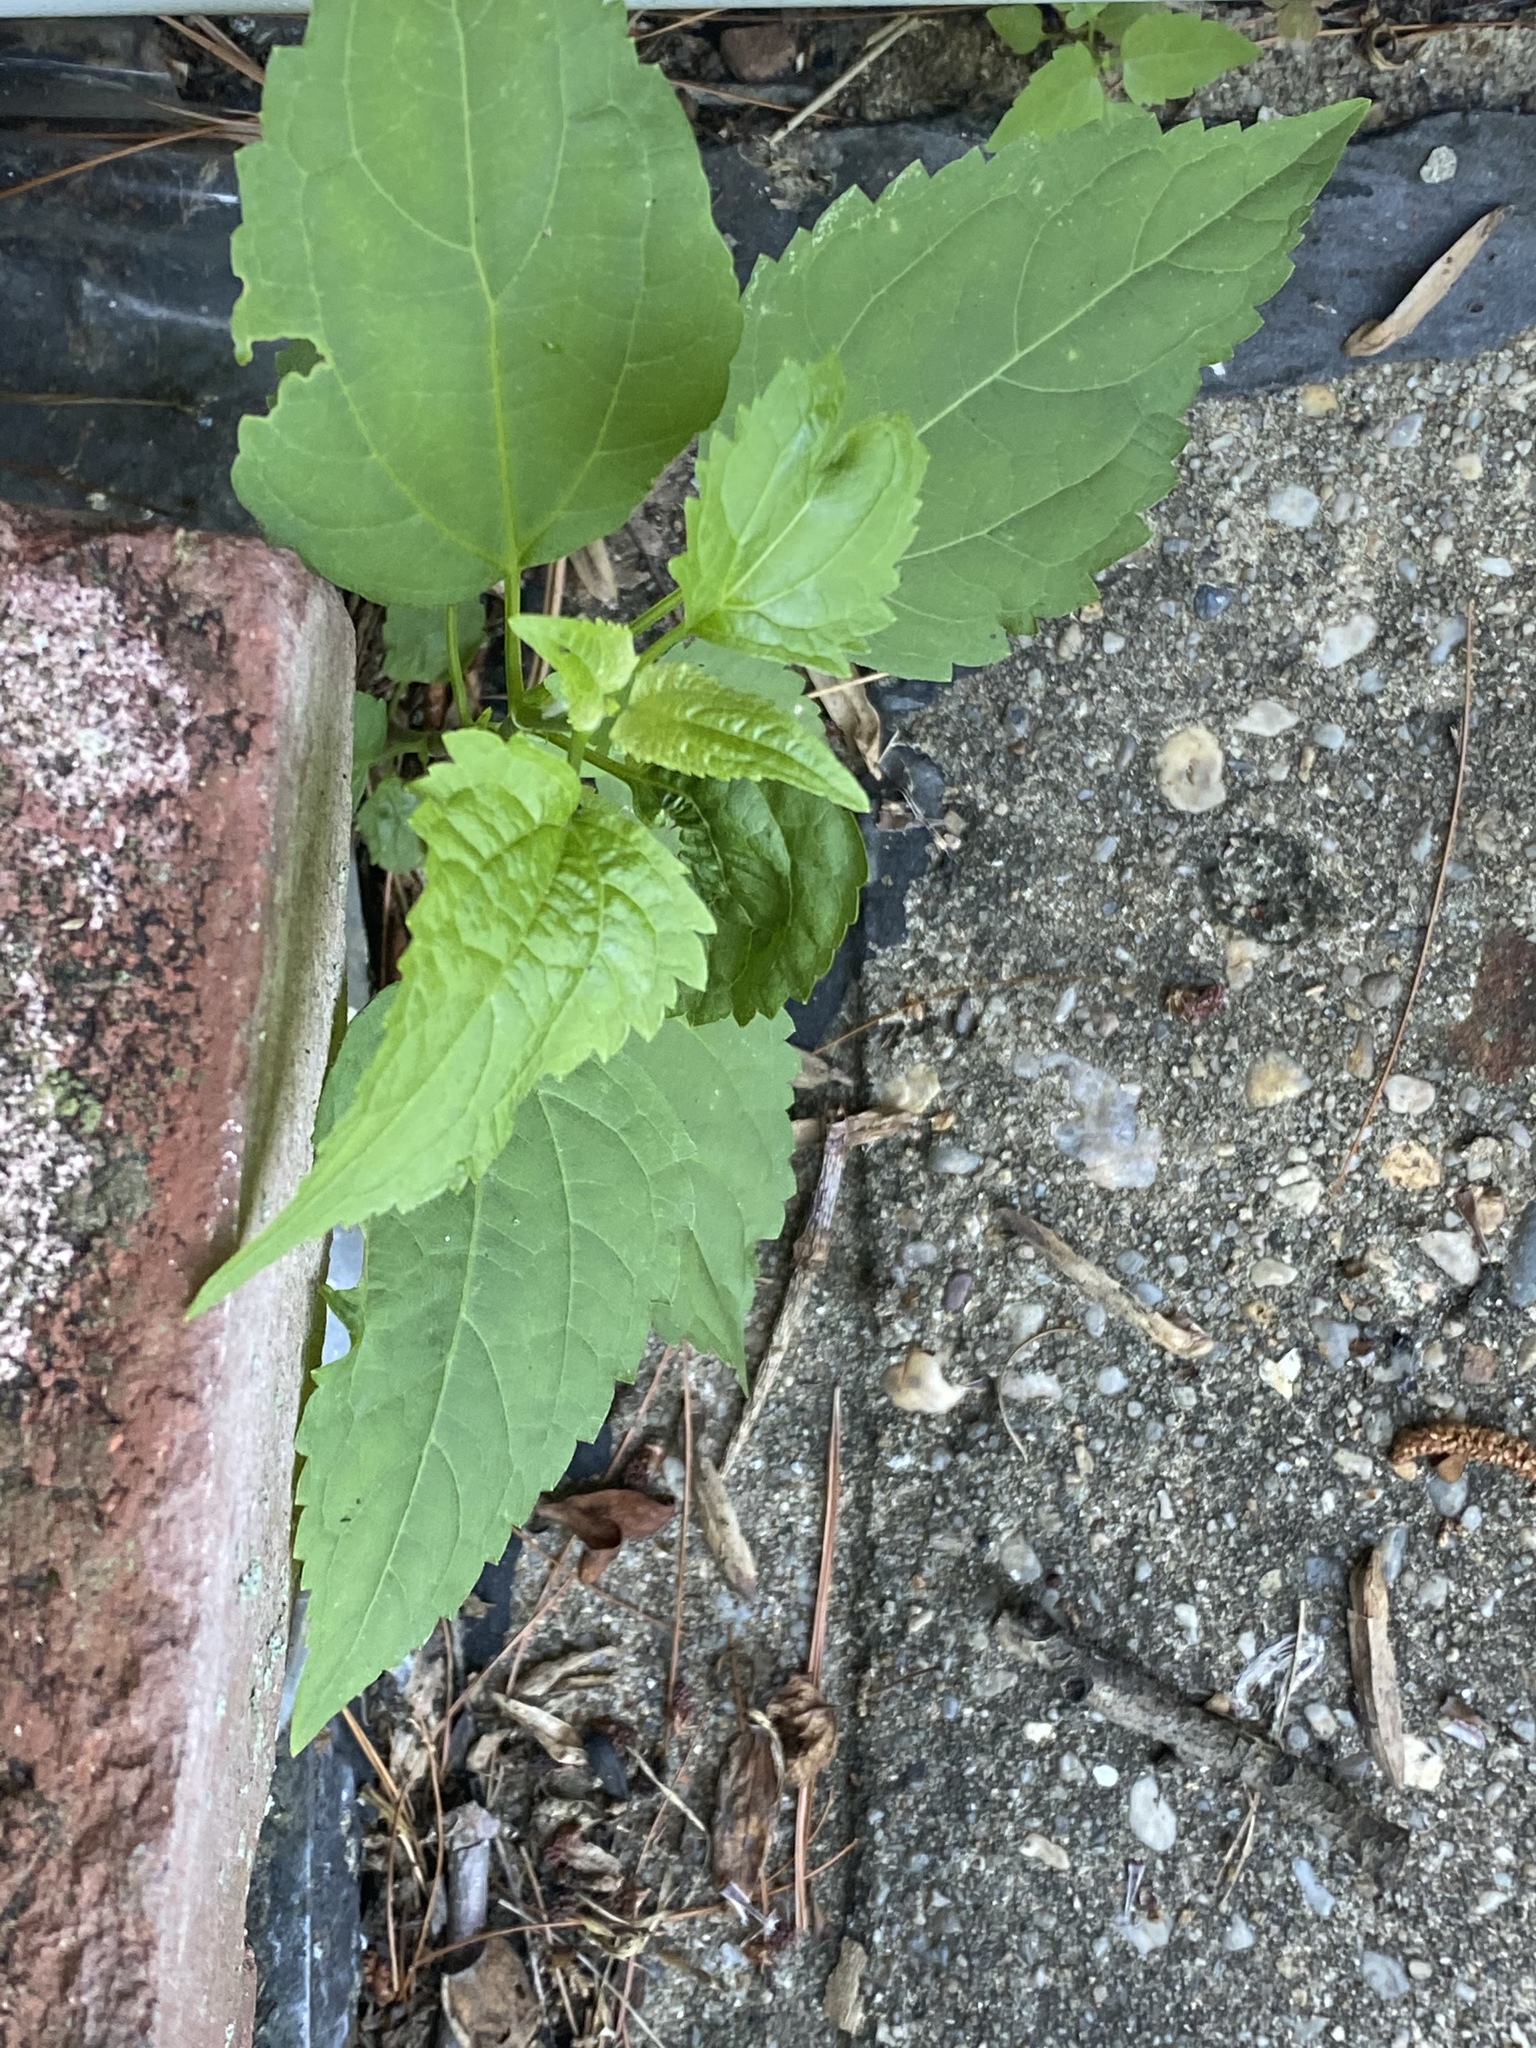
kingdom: Plantae
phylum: Tracheophyta
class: Magnoliopsida
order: Asterales
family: Asteraceae
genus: Ageratina
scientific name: Ageratina altissima
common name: White snakeroot
